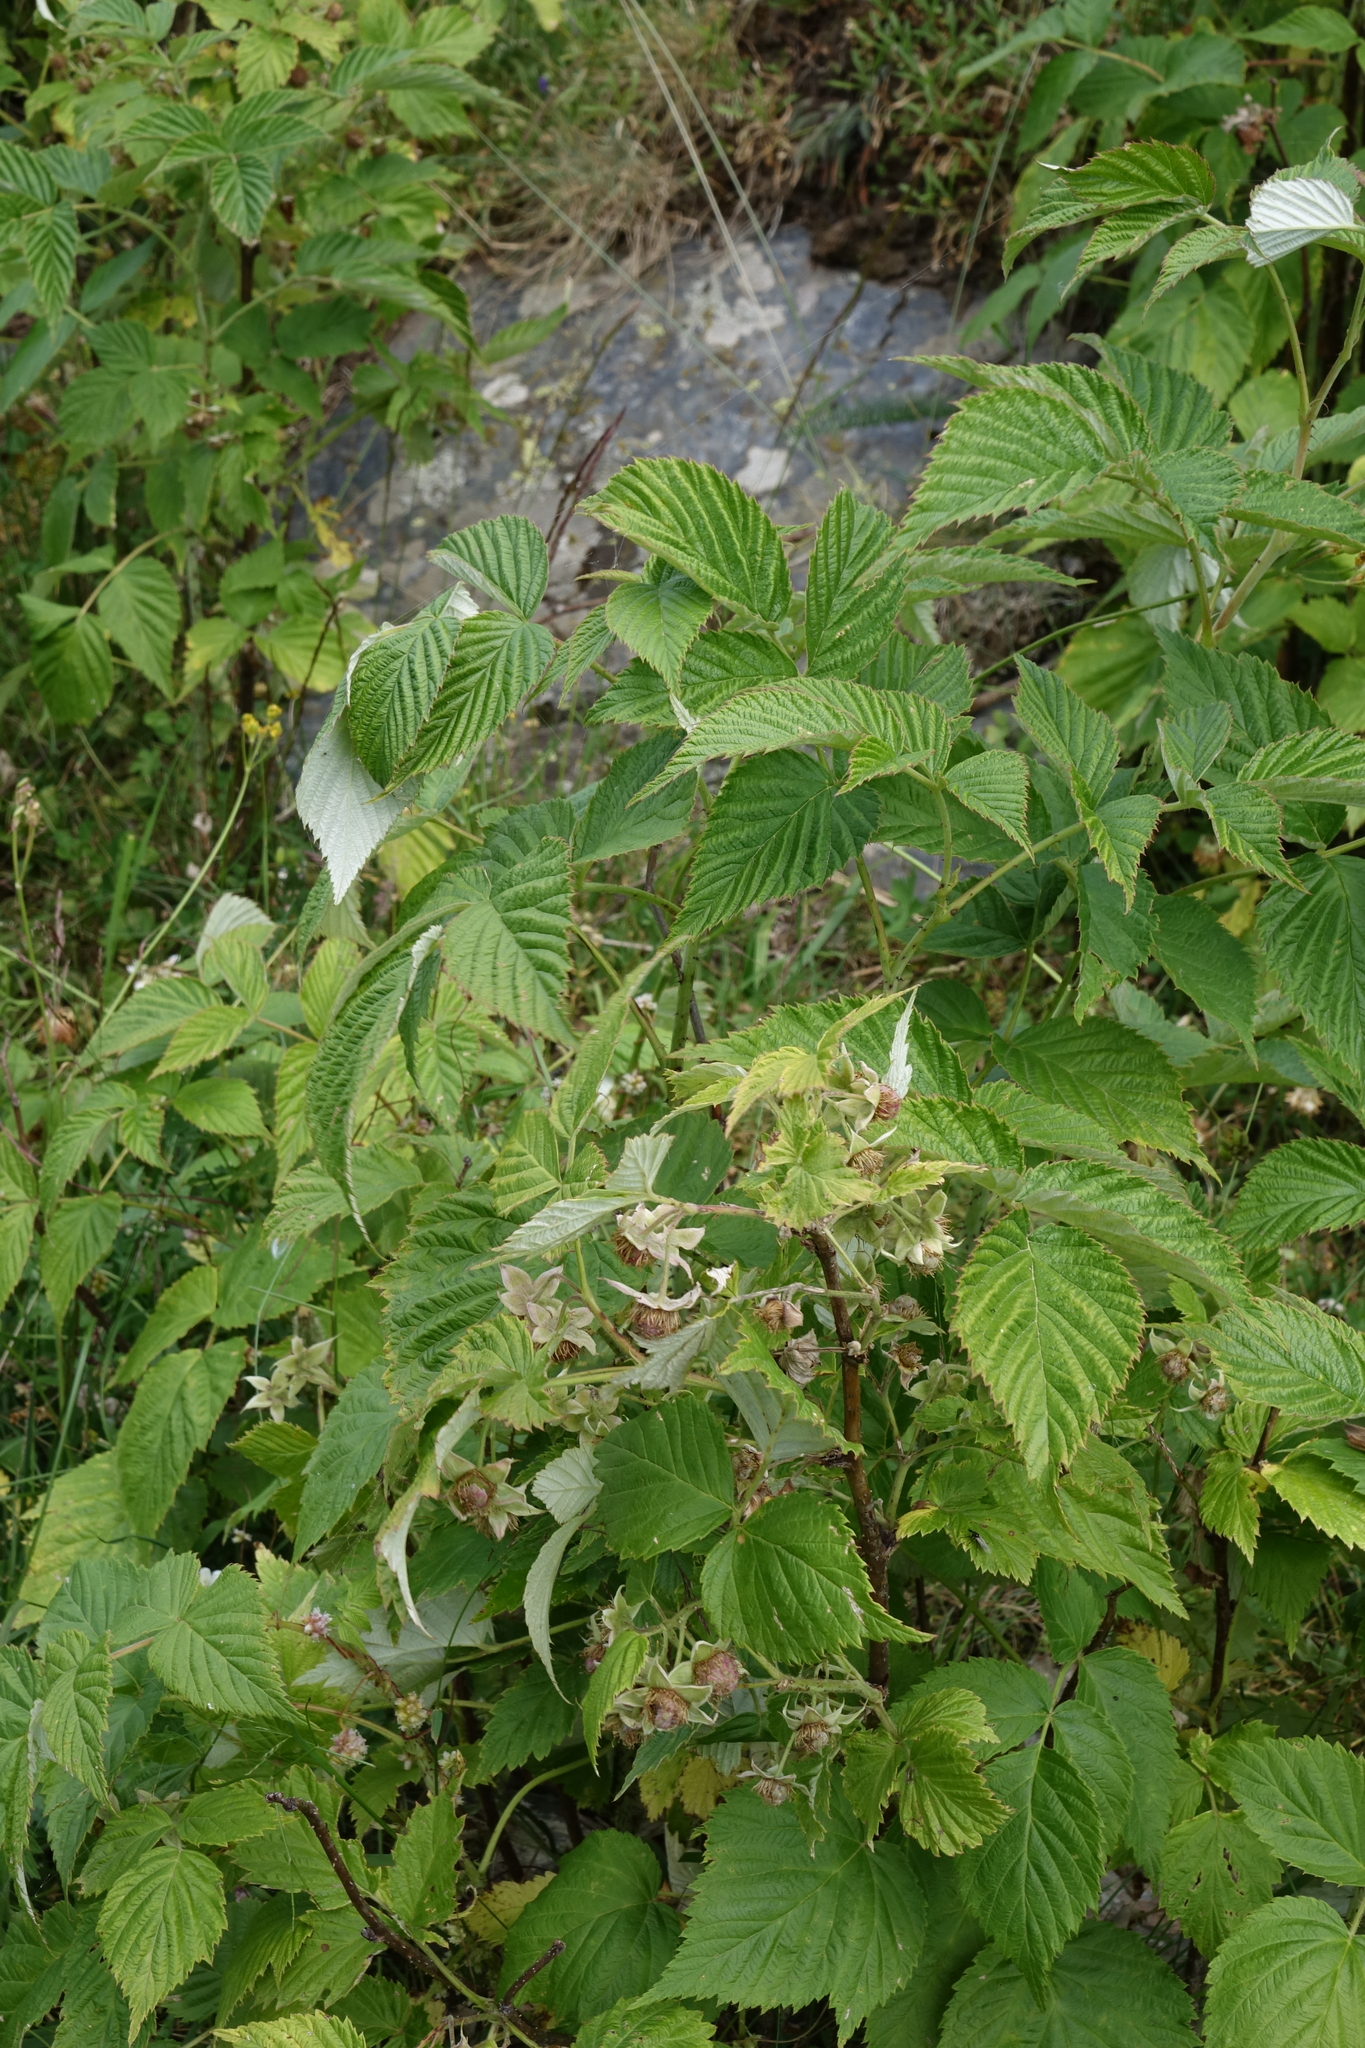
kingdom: Plantae
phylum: Tracheophyta
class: Magnoliopsida
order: Rosales
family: Rosaceae
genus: Rubus
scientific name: Rubus idaeus
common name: Raspberry
